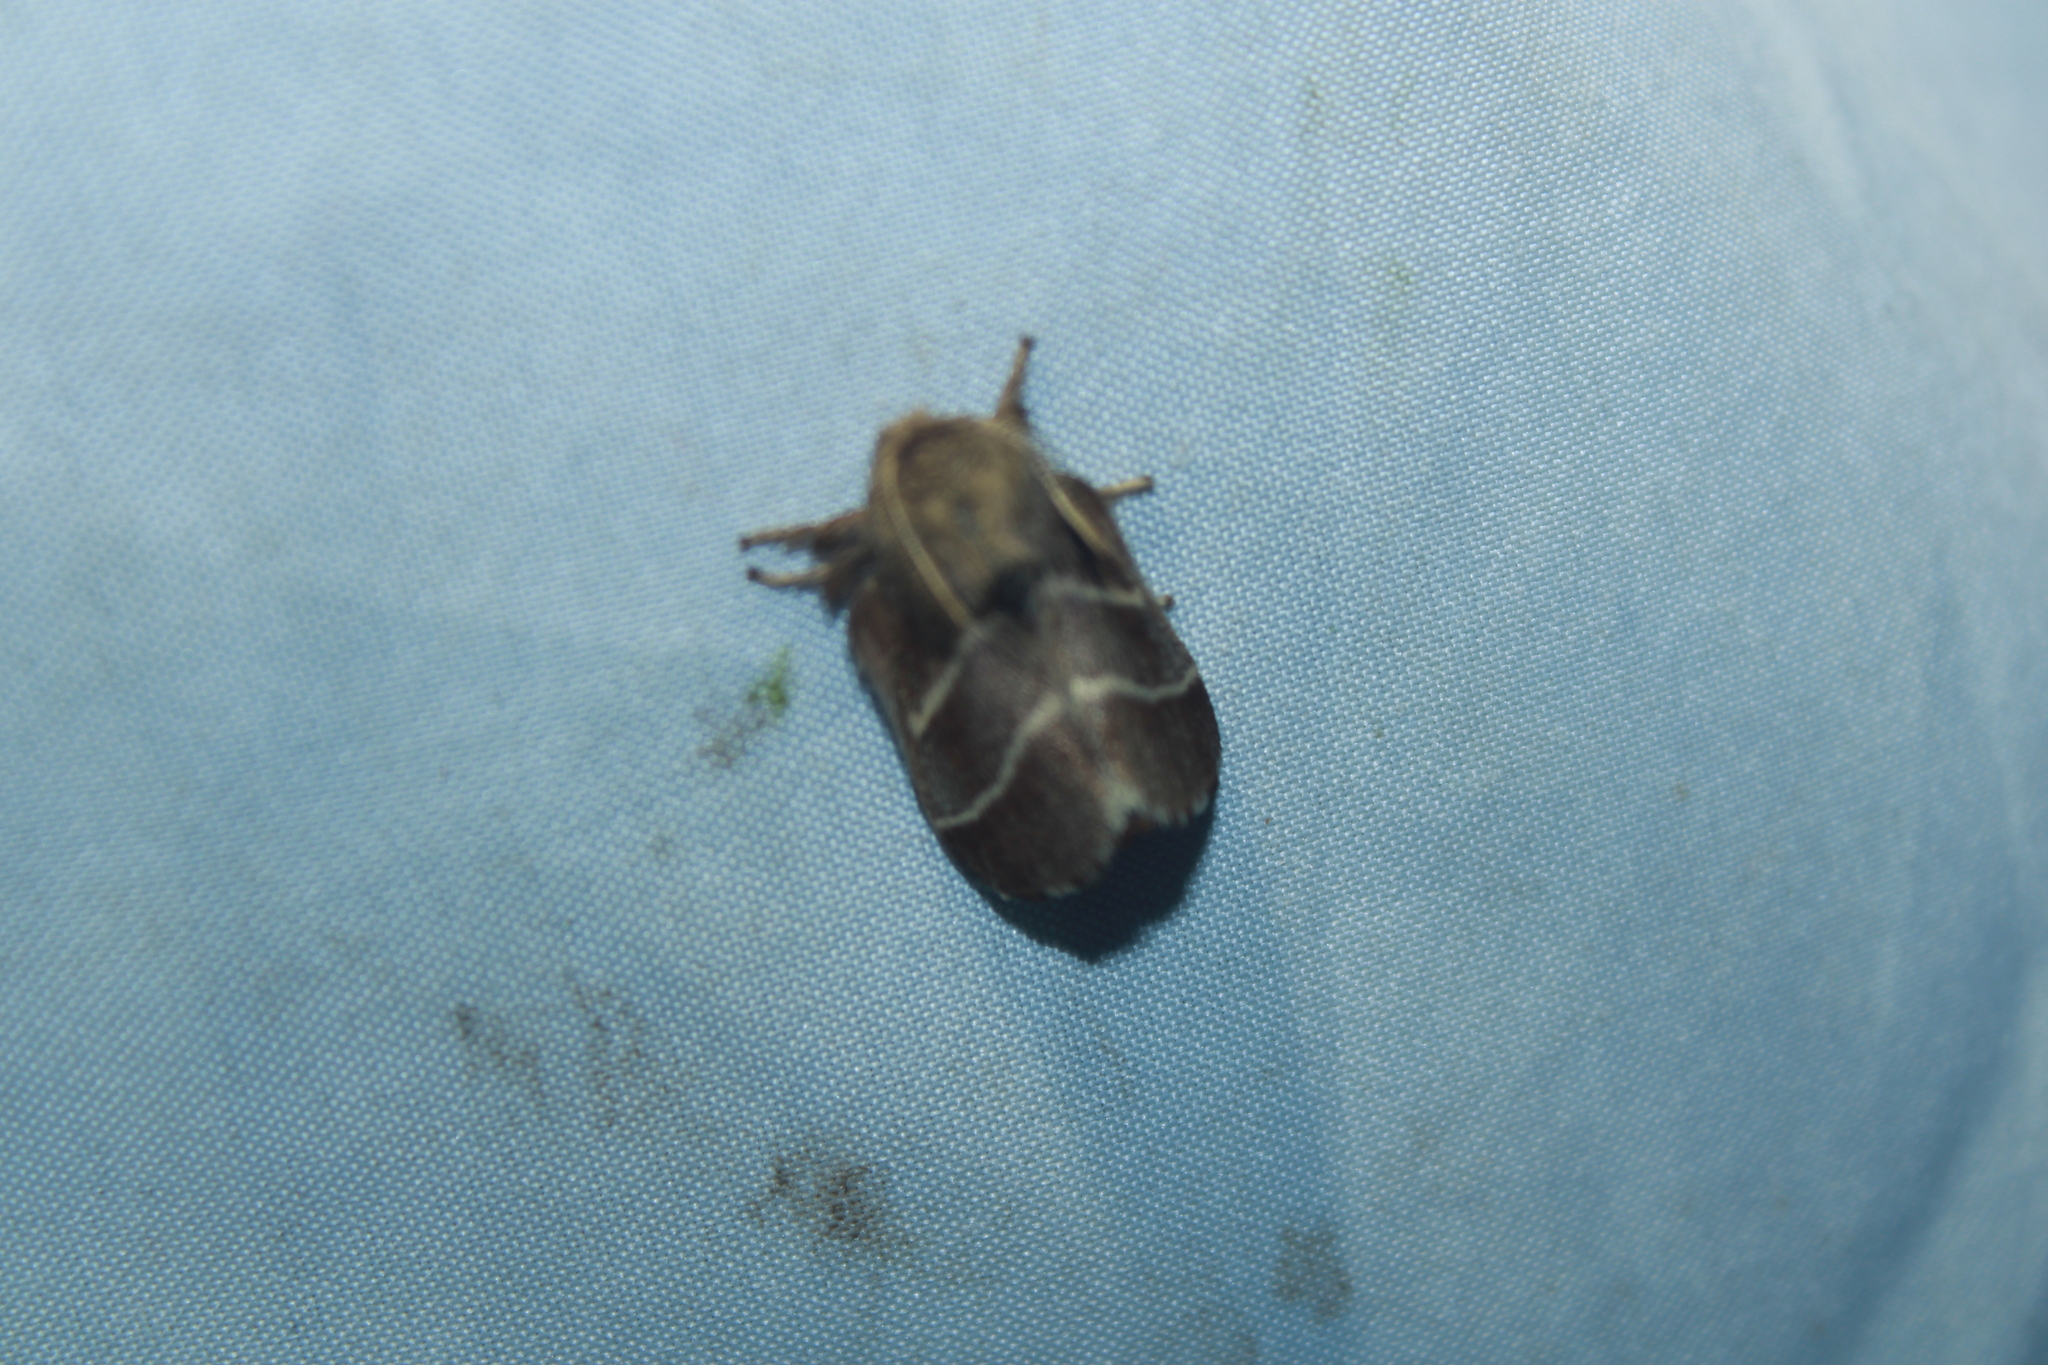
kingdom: Animalia
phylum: Arthropoda
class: Insecta
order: Lepidoptera
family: Lasiocampidae
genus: Malacosoma
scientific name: Malacosoma americana
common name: Eastern tent caterpillar moth
